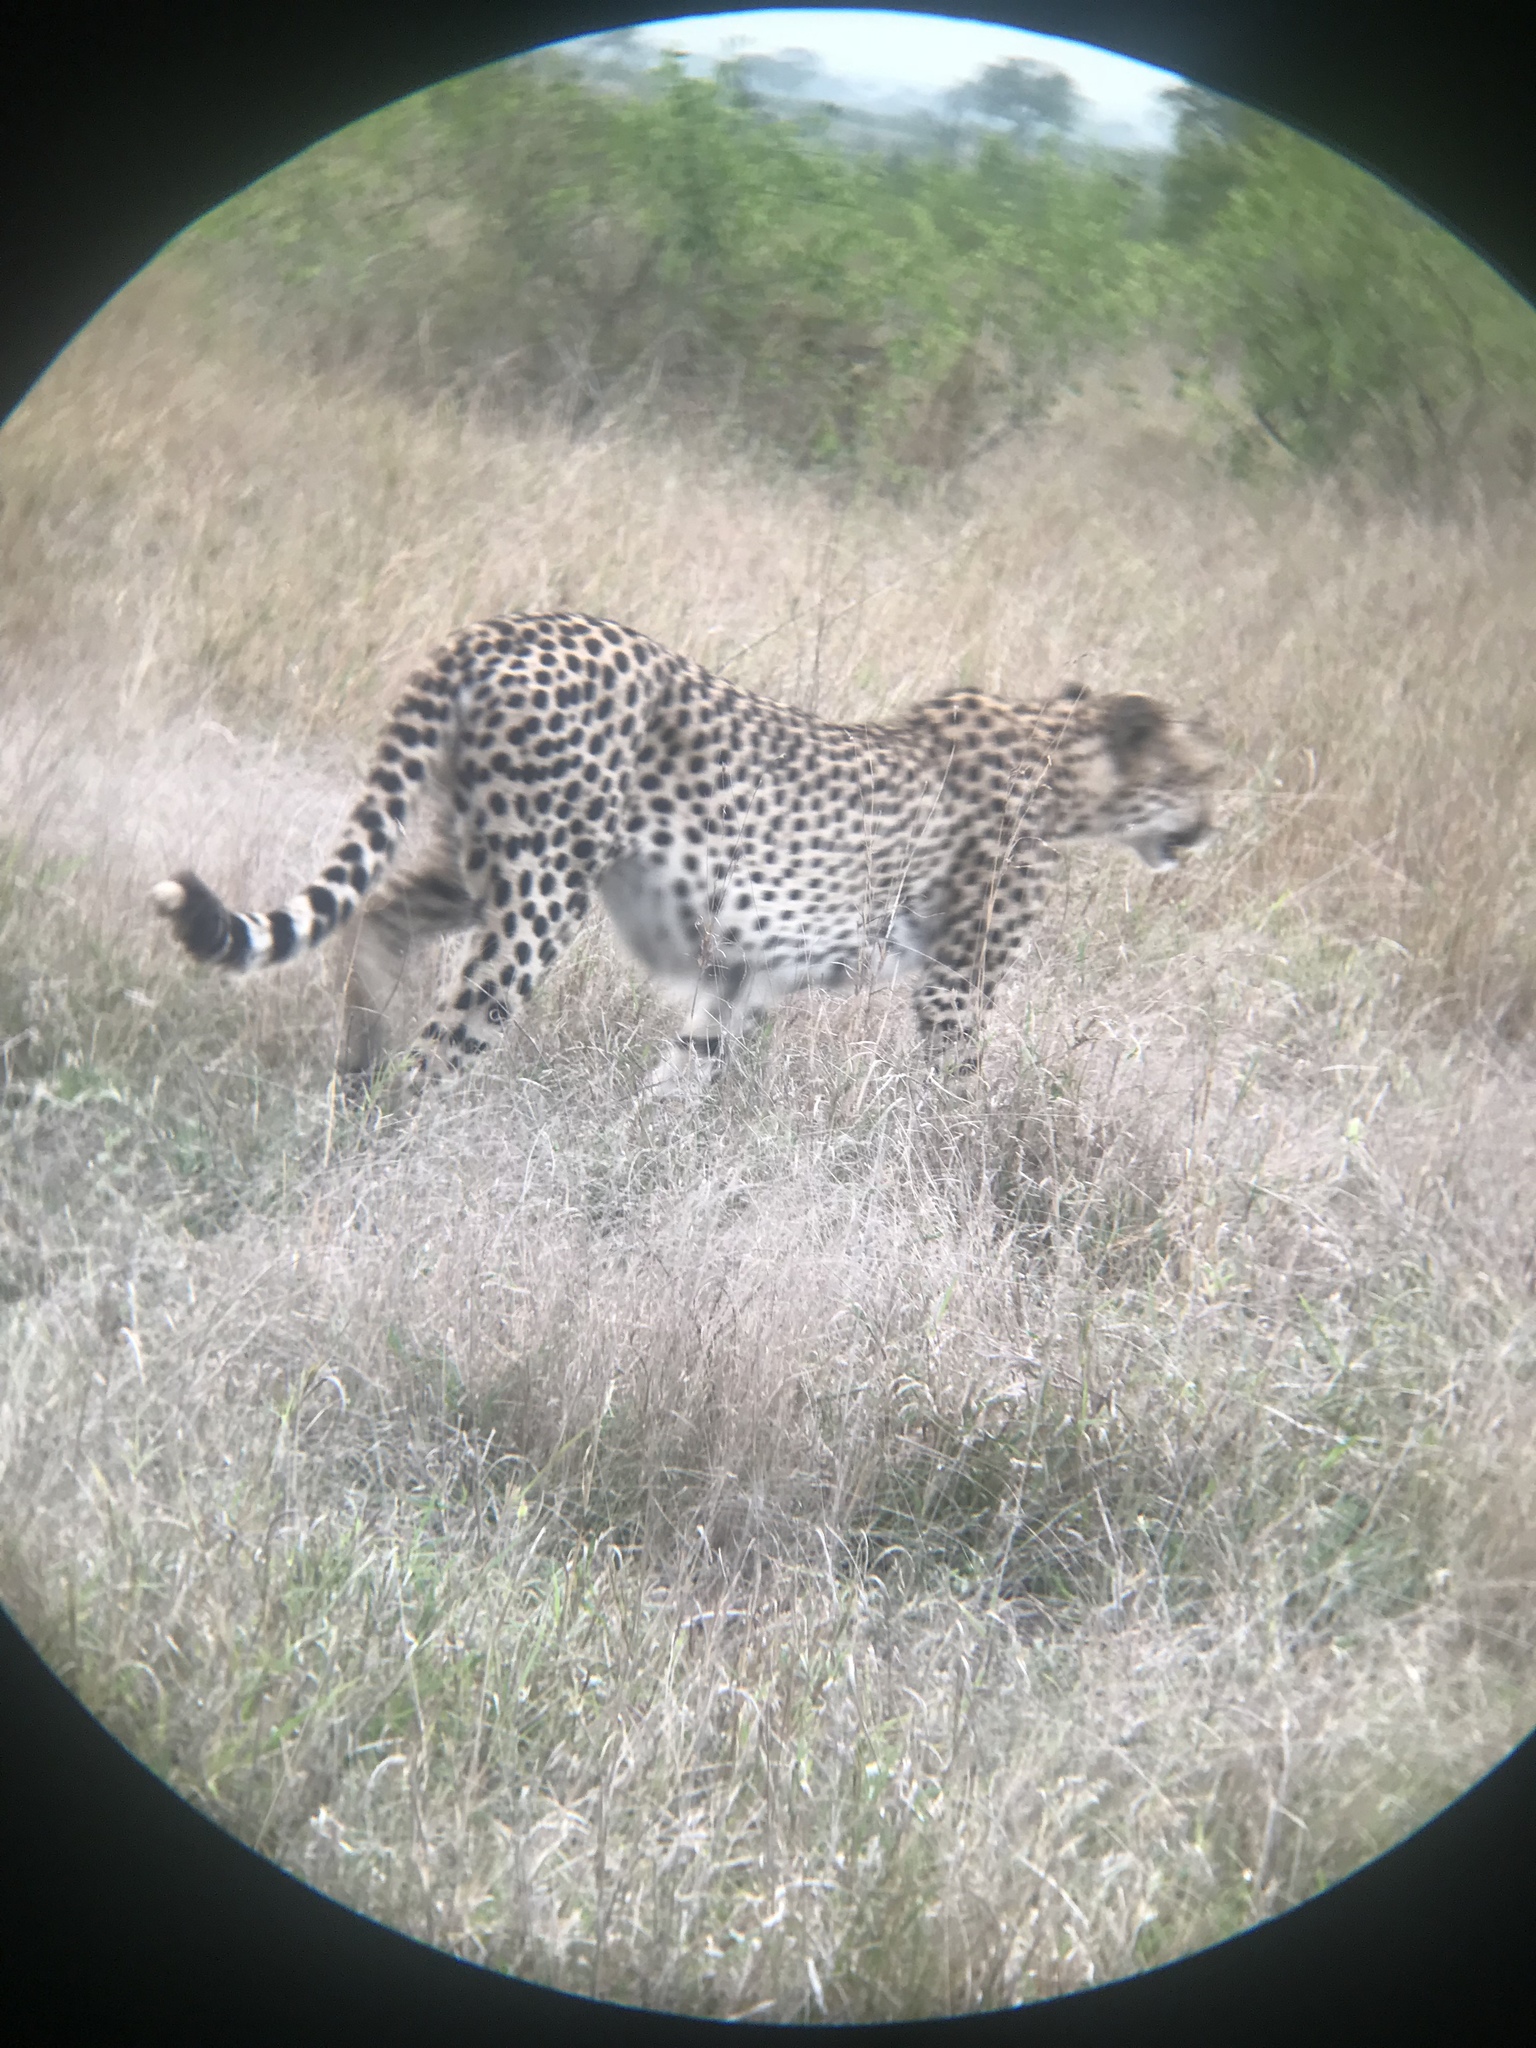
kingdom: Animalia
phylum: Chordata
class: Mammalia
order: Carnivora
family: Felidae
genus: Acinonyx
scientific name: Acinonyx jubatus
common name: Cheetah
